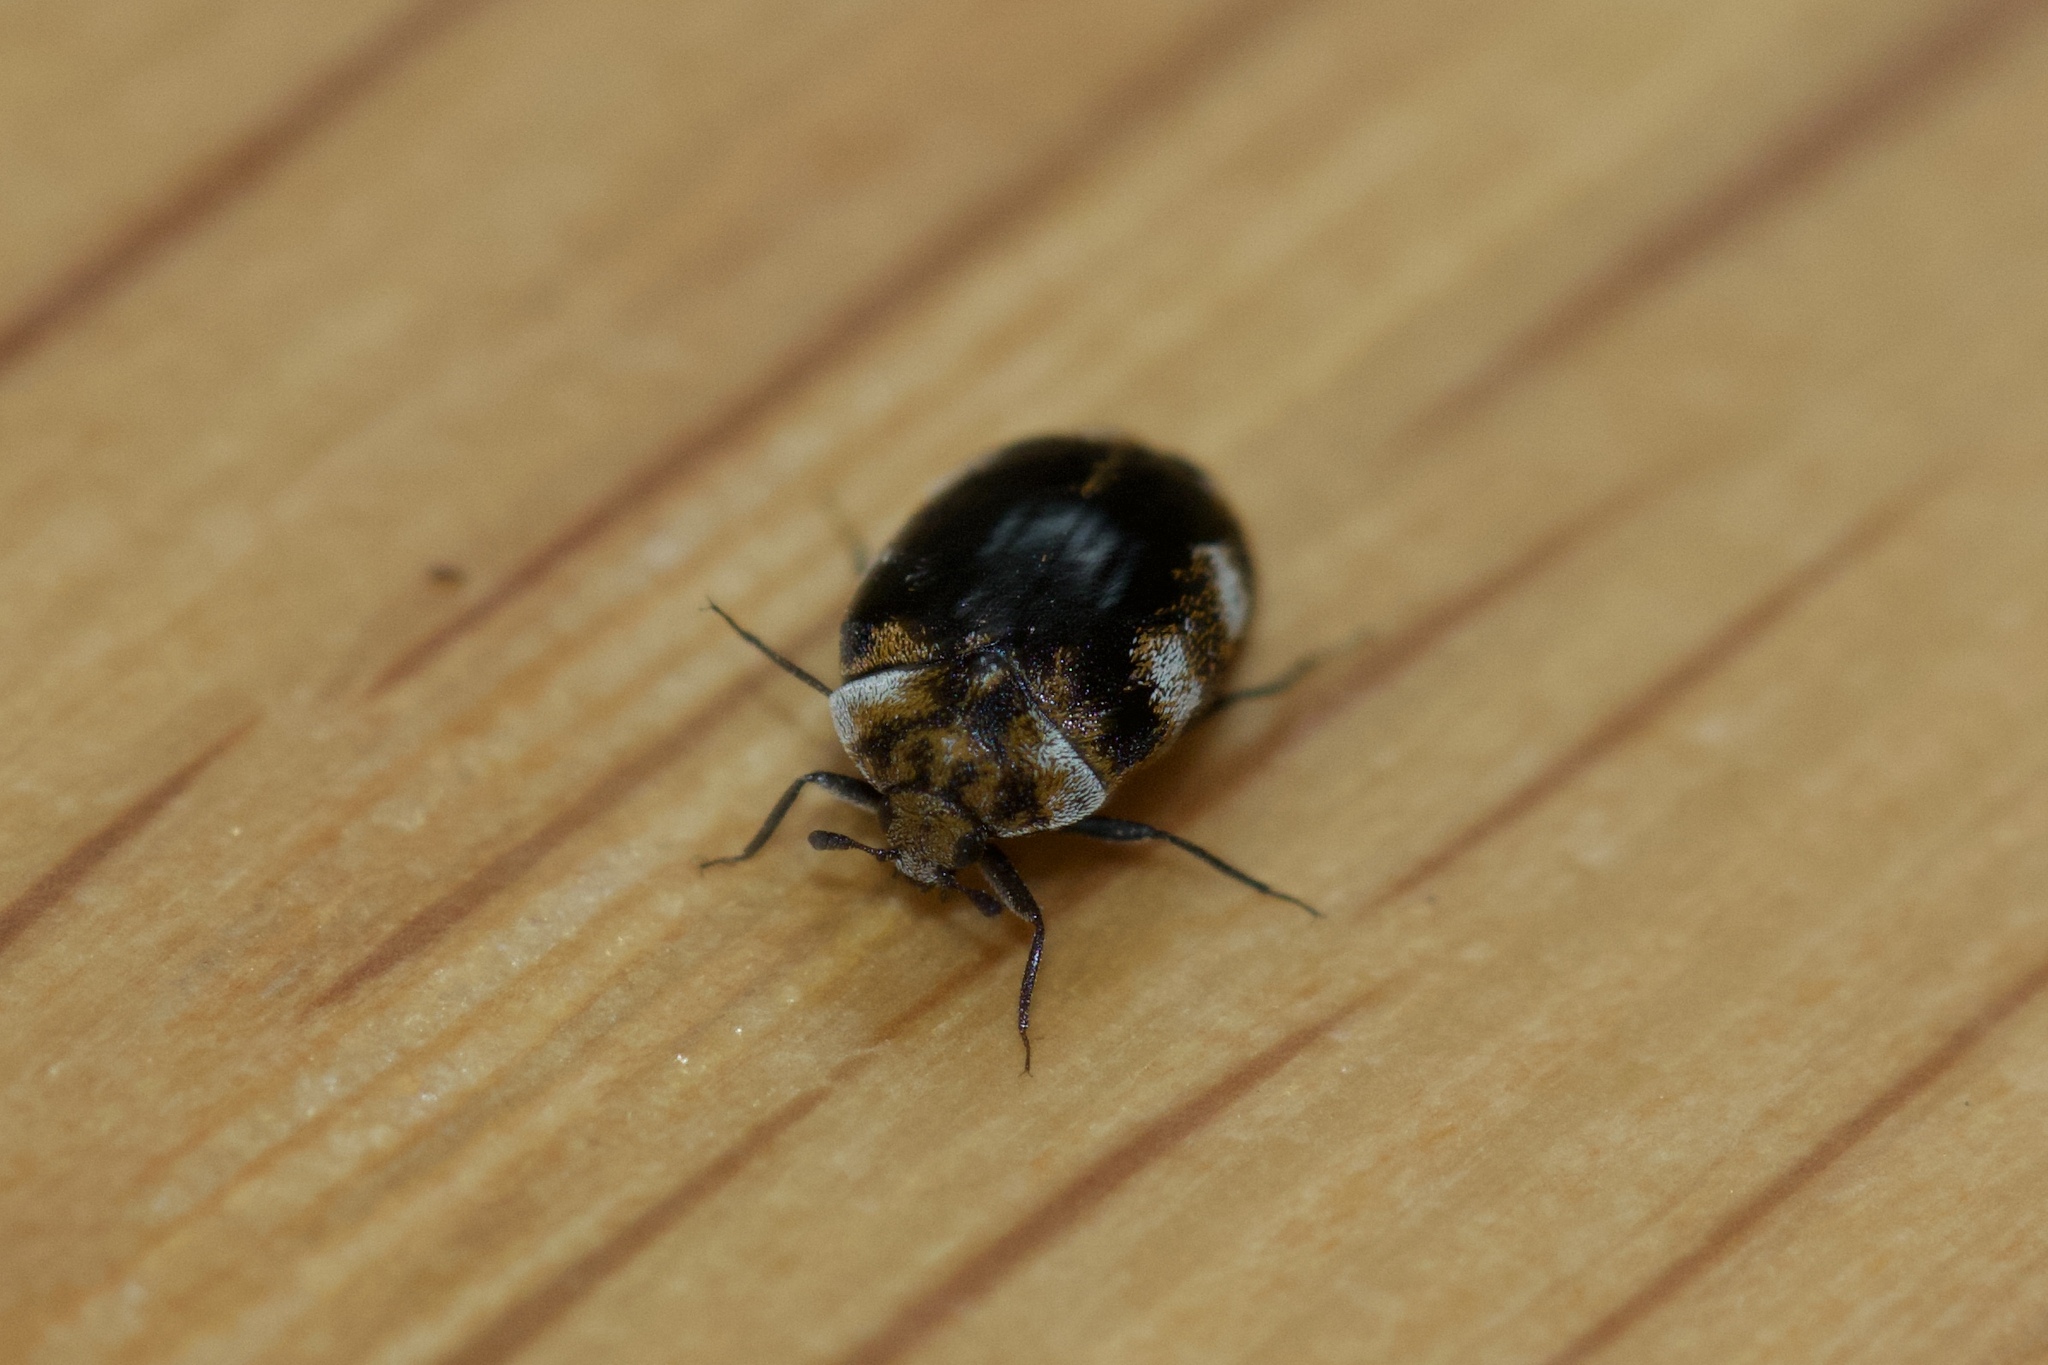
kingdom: Animalia
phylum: Arthropoda
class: Insecta
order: Coleoptera
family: Dermestidae
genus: Anthrenus
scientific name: Anthrenus verbasci
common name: Varied carpet beetle
